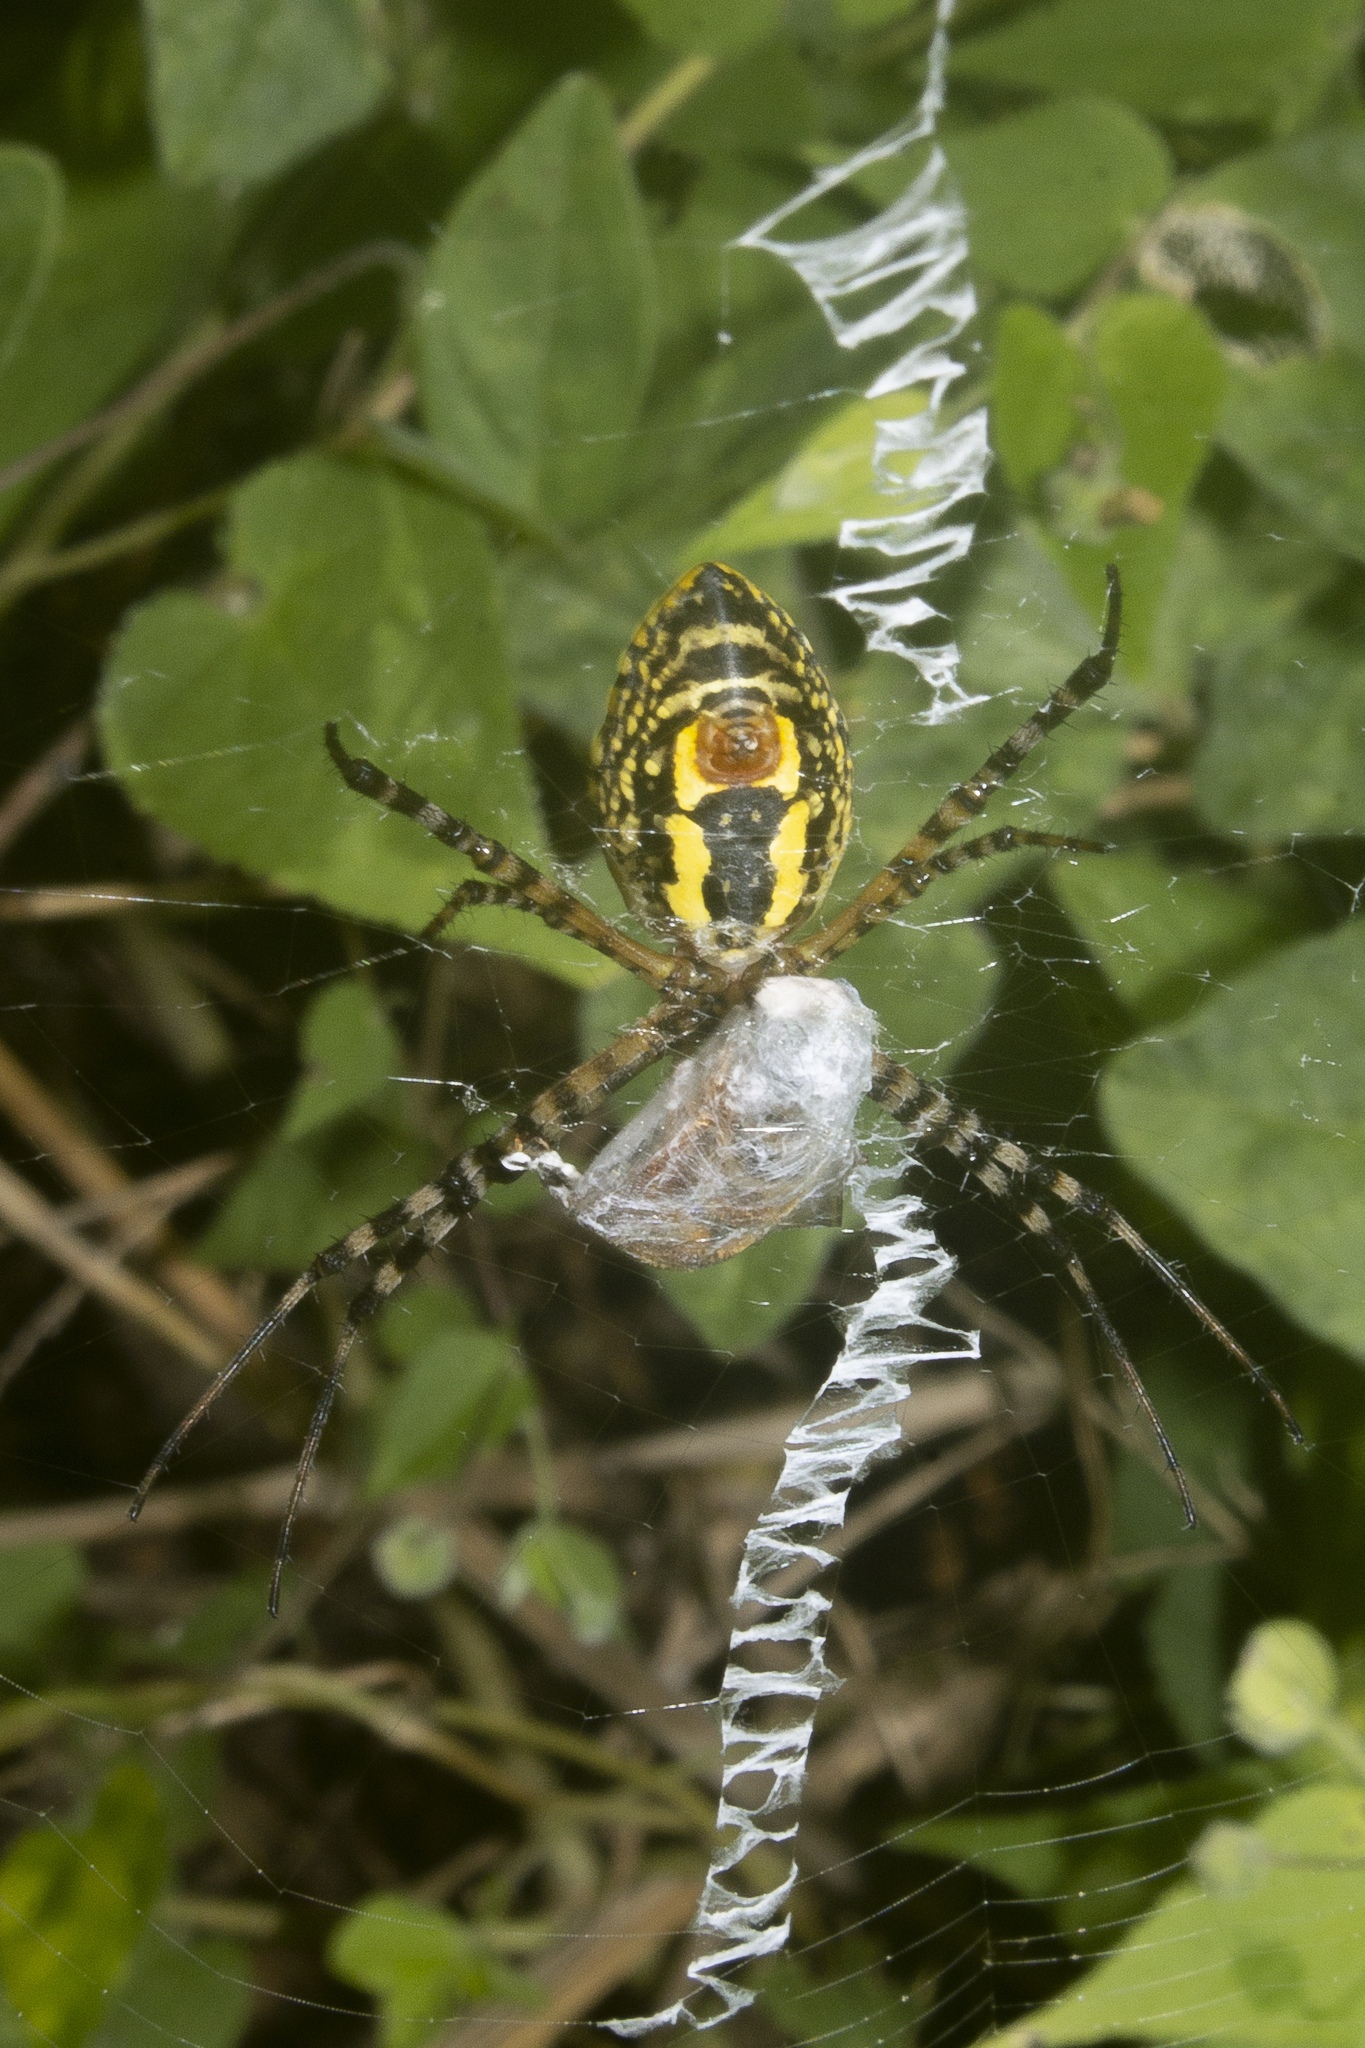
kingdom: Animalia
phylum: Arthropoda
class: Arachnida
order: Araneae
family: Araneidae
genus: Argiope
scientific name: Argiope trifasciata
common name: Banded garden spider
